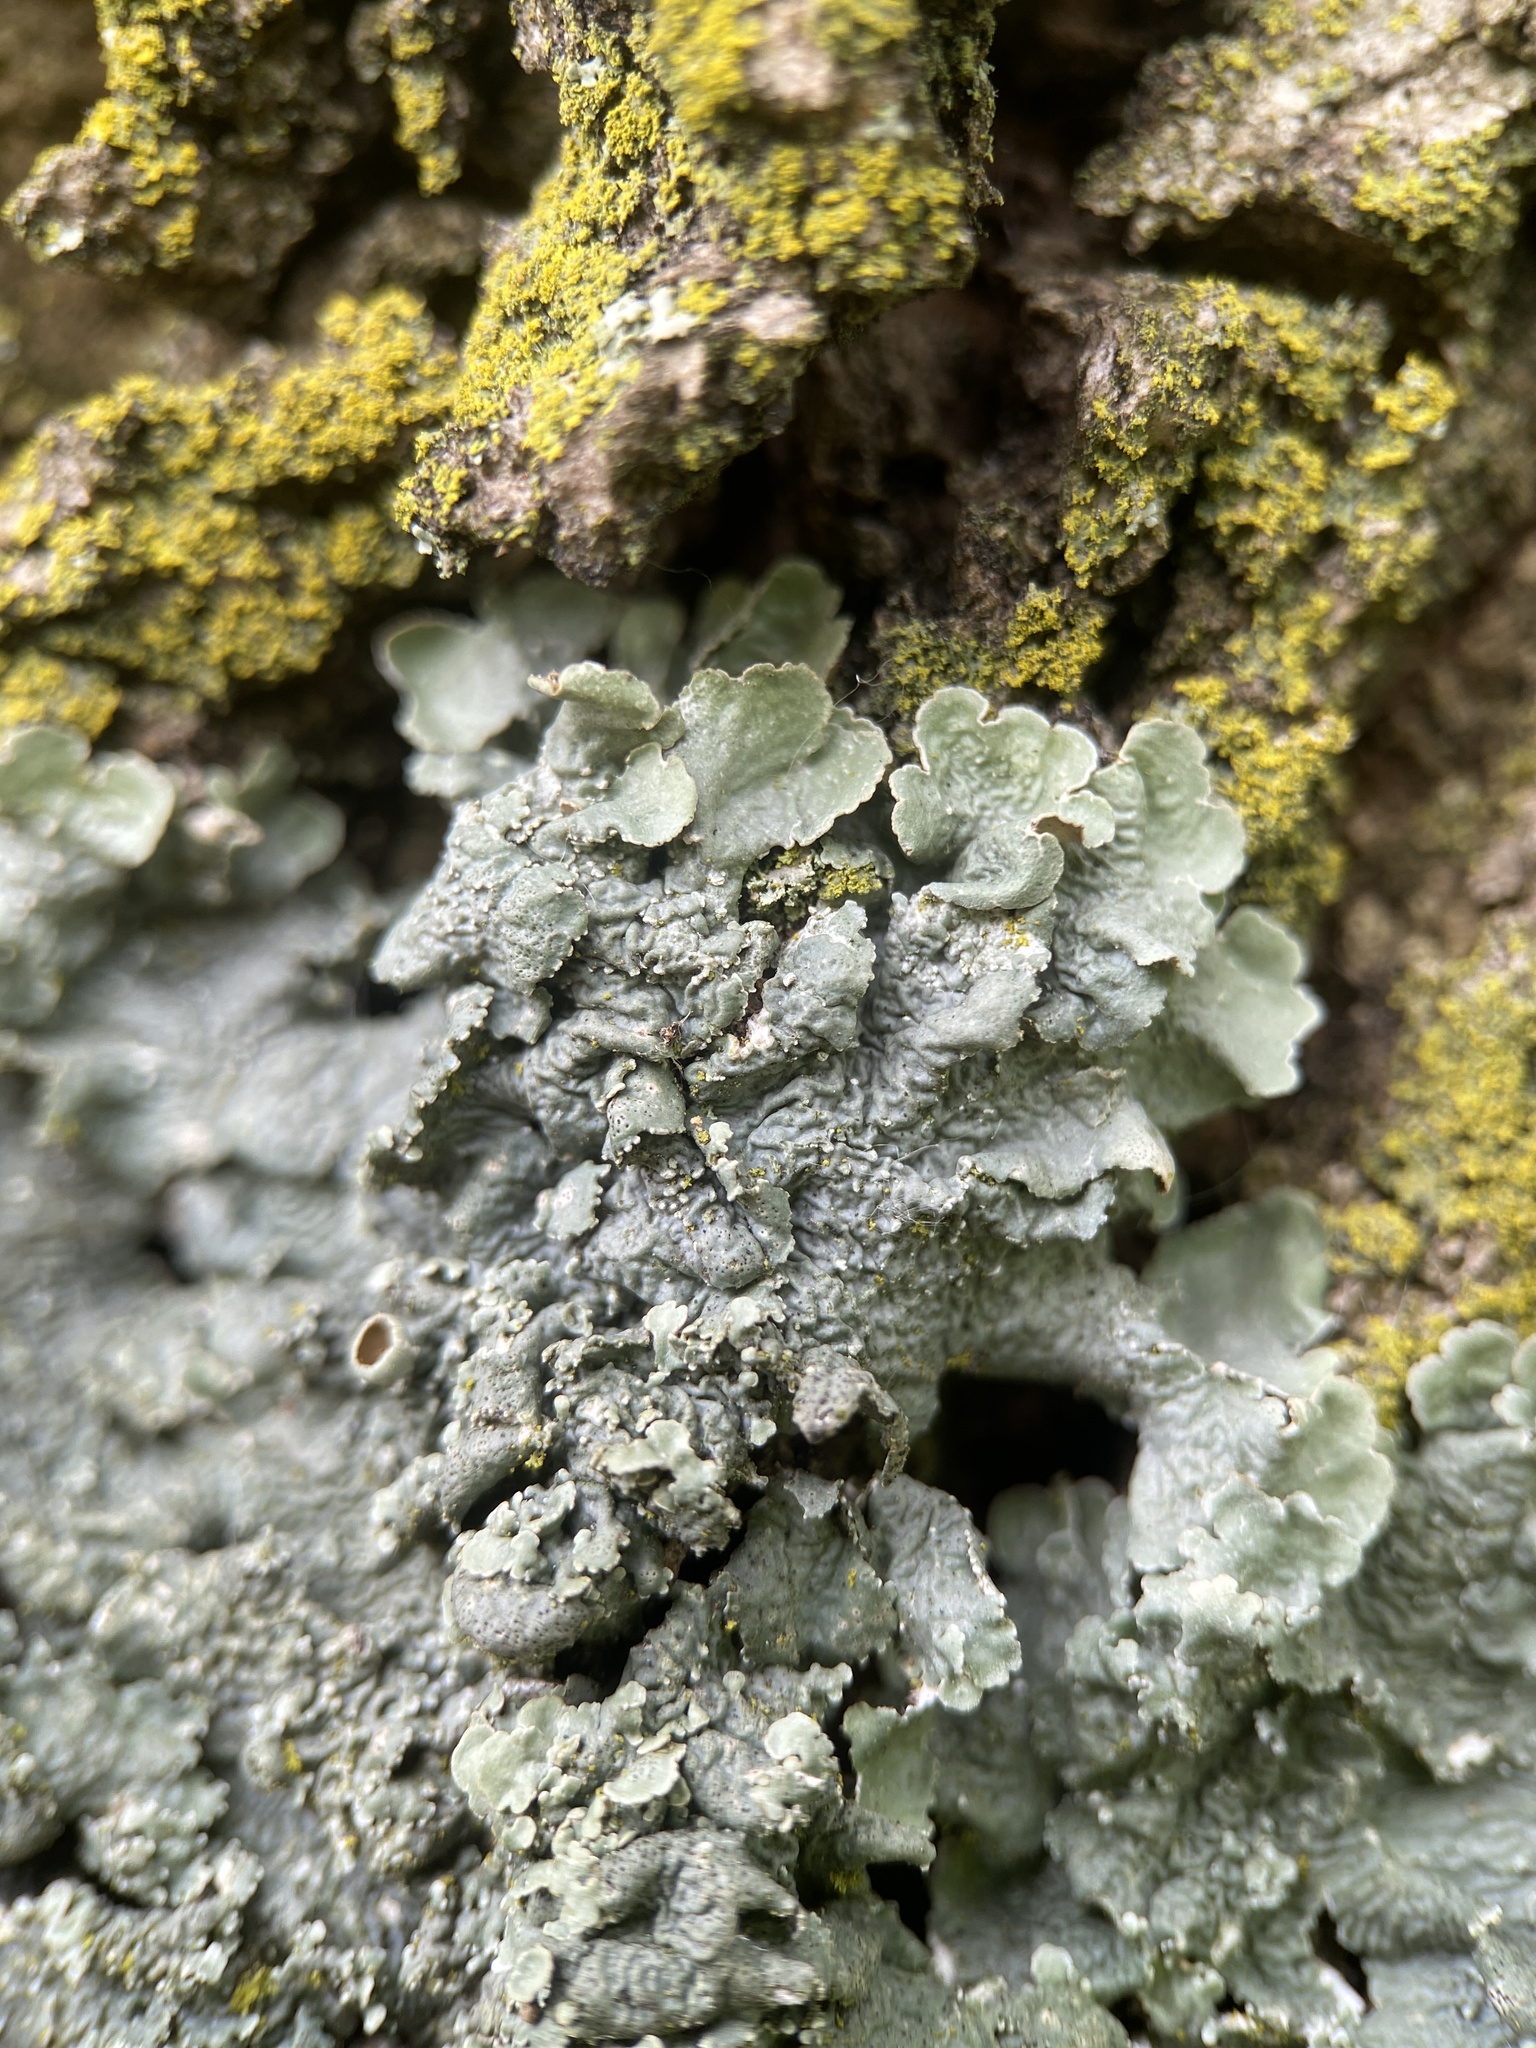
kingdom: Fungi
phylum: Ascomycota
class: Lecanoromycetes
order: Lecanorales
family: Parmeliaceae
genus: Punctelia
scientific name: Punctelia bolliana
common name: Eastern speckled shield lichen
